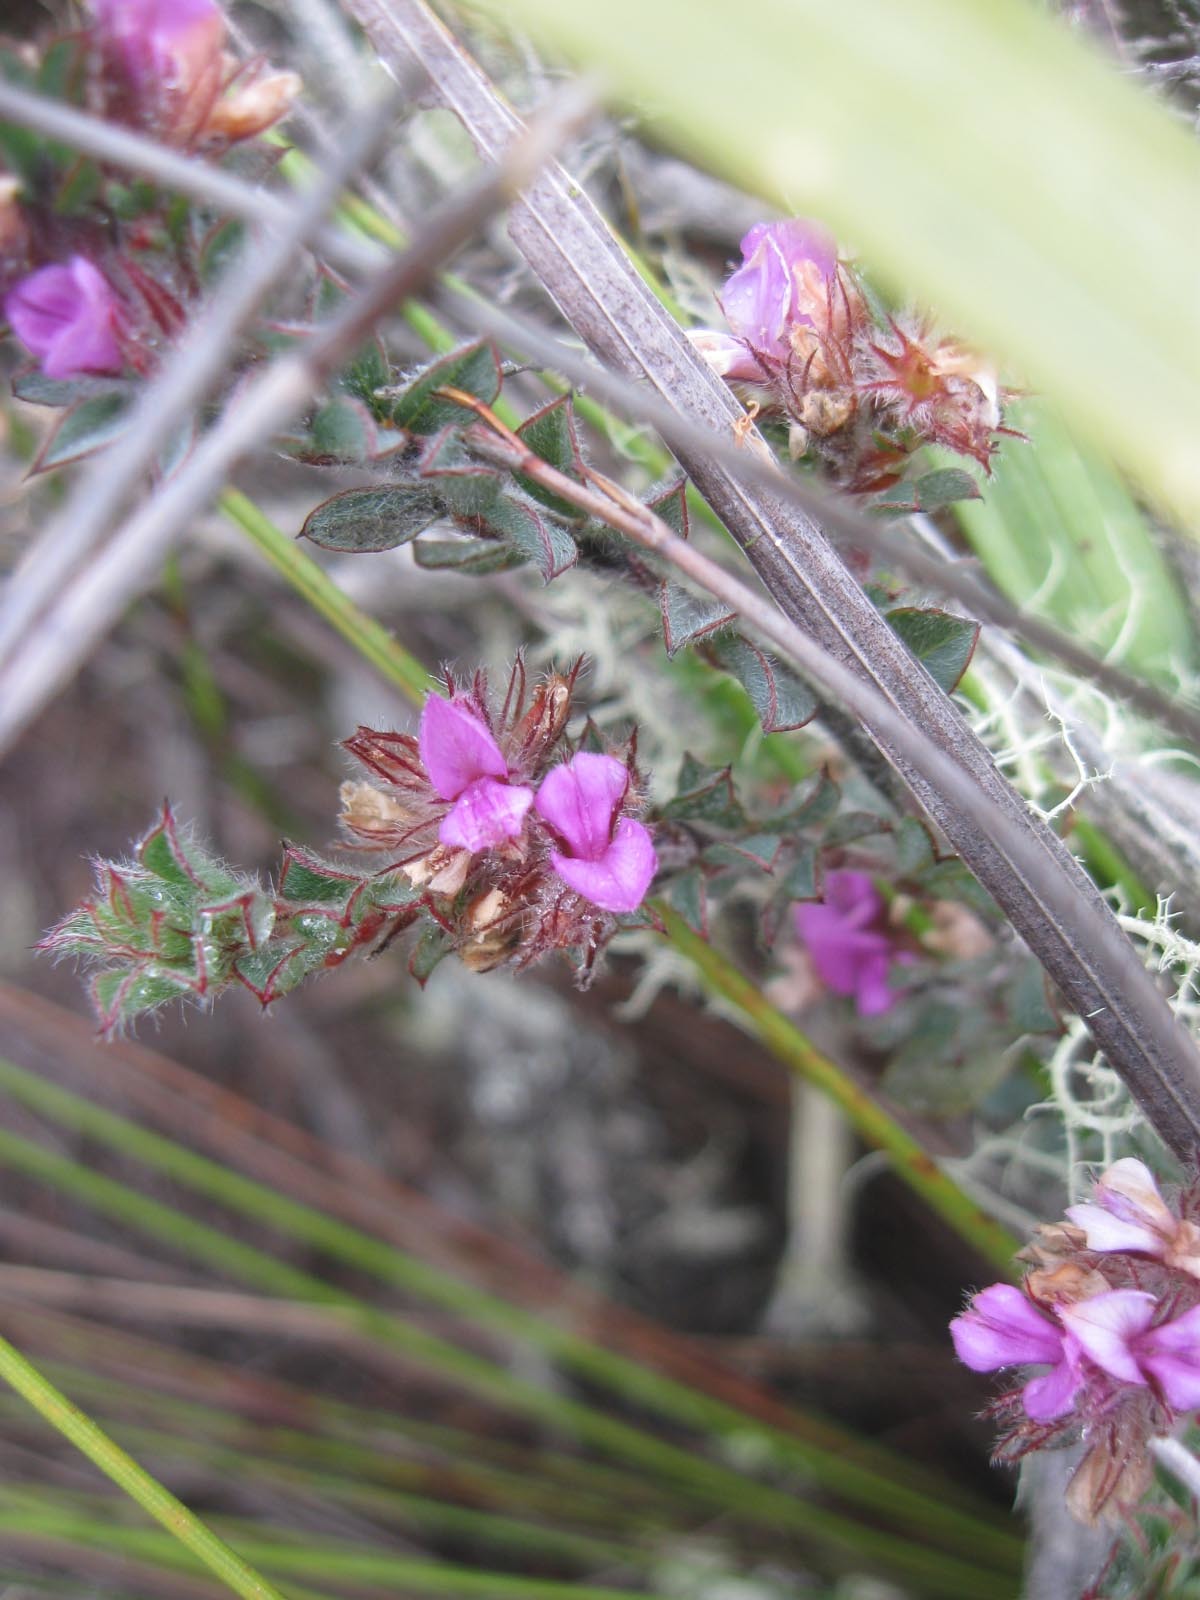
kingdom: Plantae
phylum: Tracheophyta
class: Magnoliopsida
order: Fabales
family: Fabaceae
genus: Indigofera
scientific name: Indigofera glomerata
